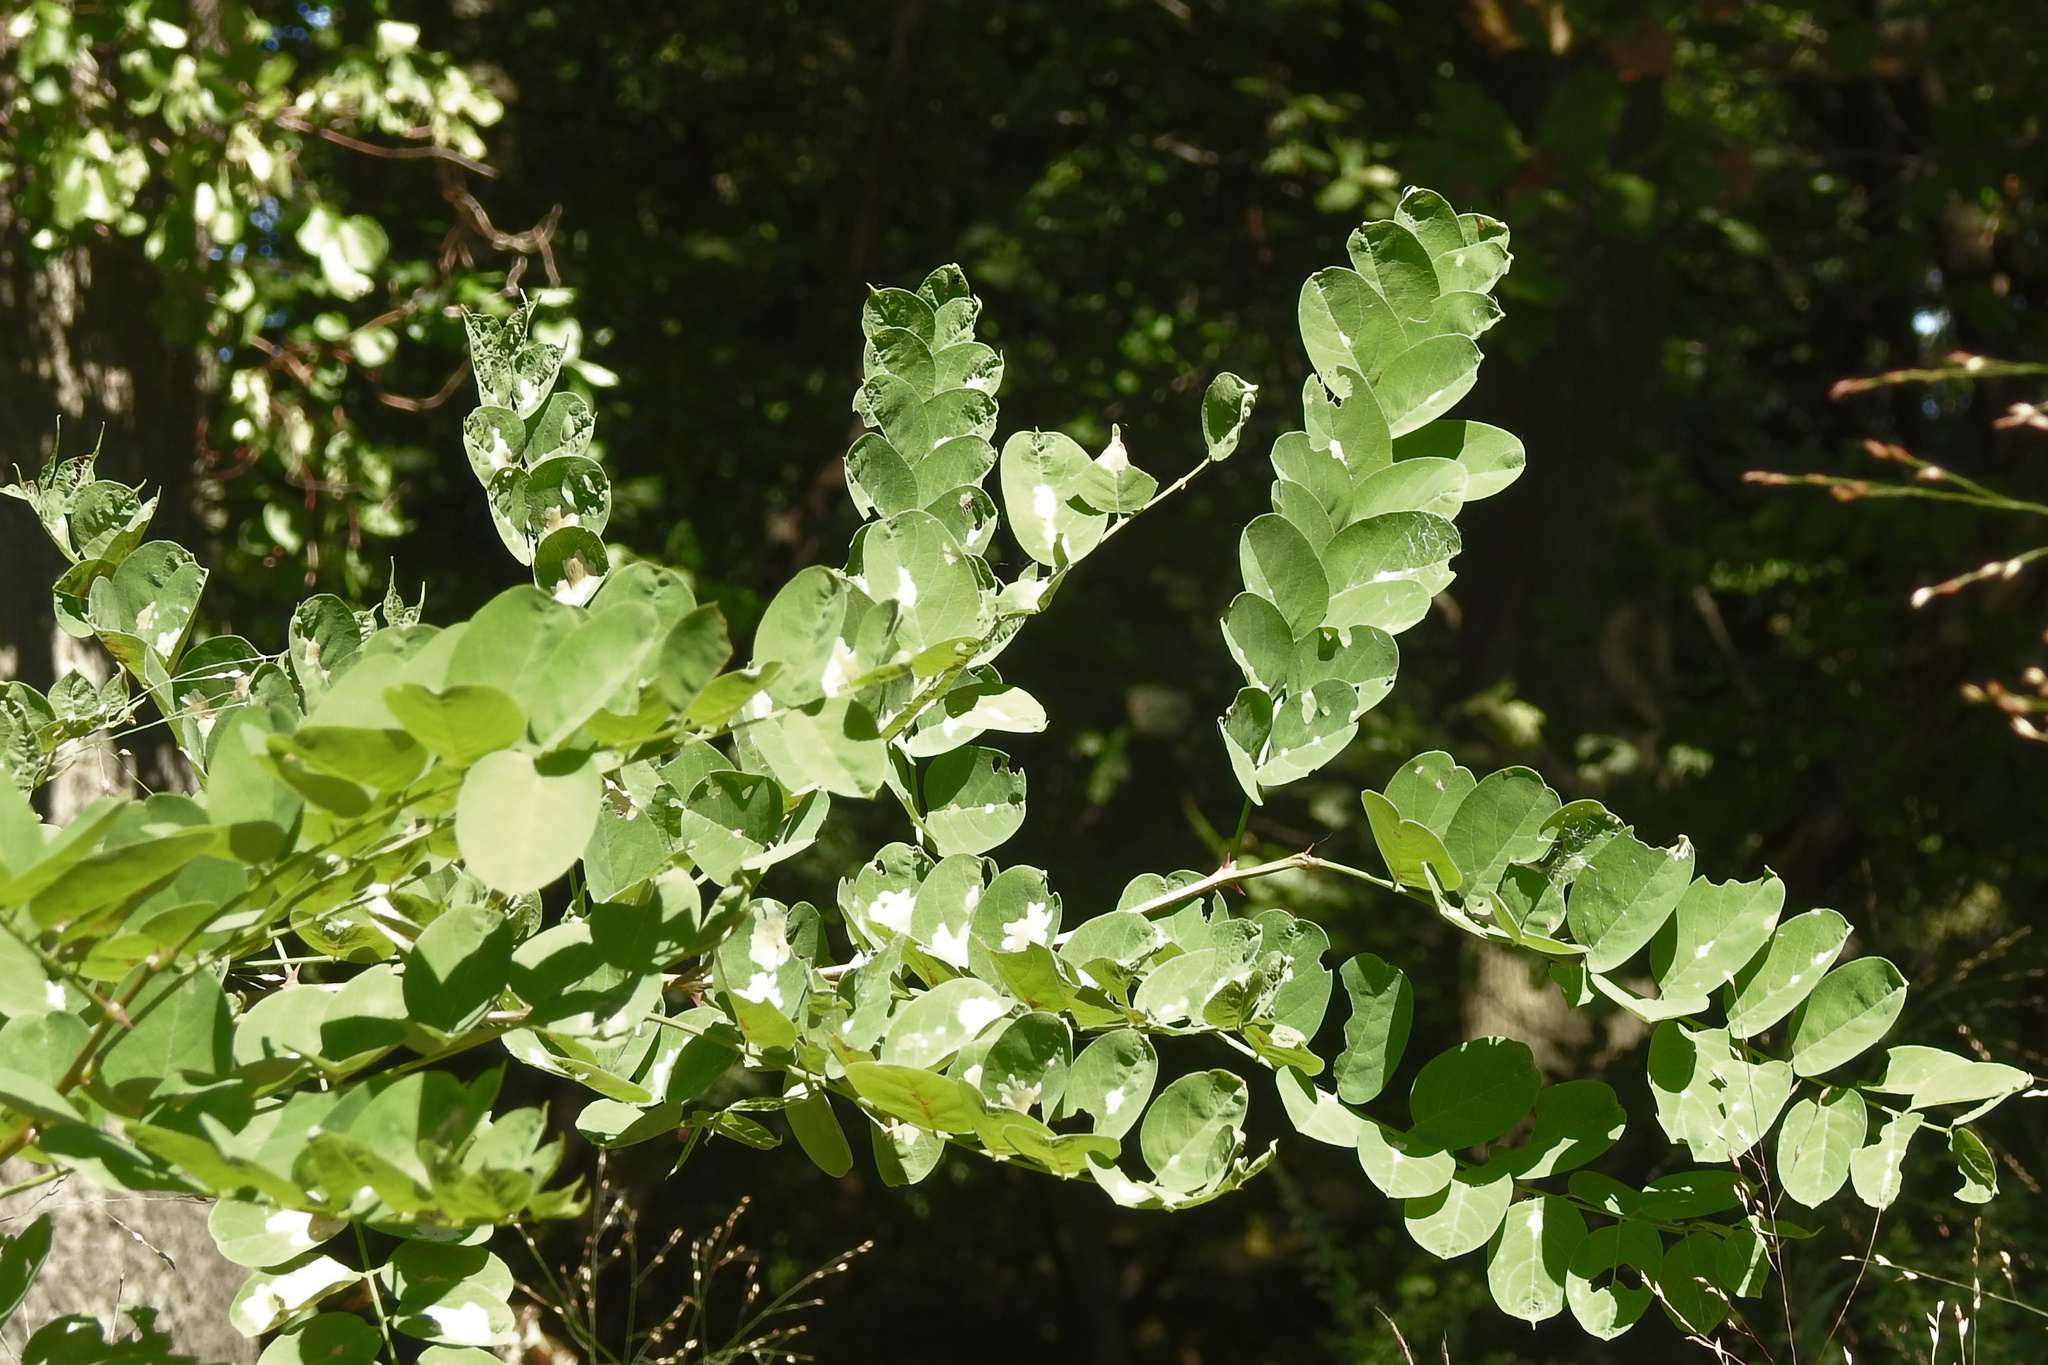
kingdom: Plantae
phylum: Tracheophyta
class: Magnoliopsida
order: Fabales
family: Fabaceae
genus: Robinia
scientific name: Robinia pseudoacacia
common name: Black locust
